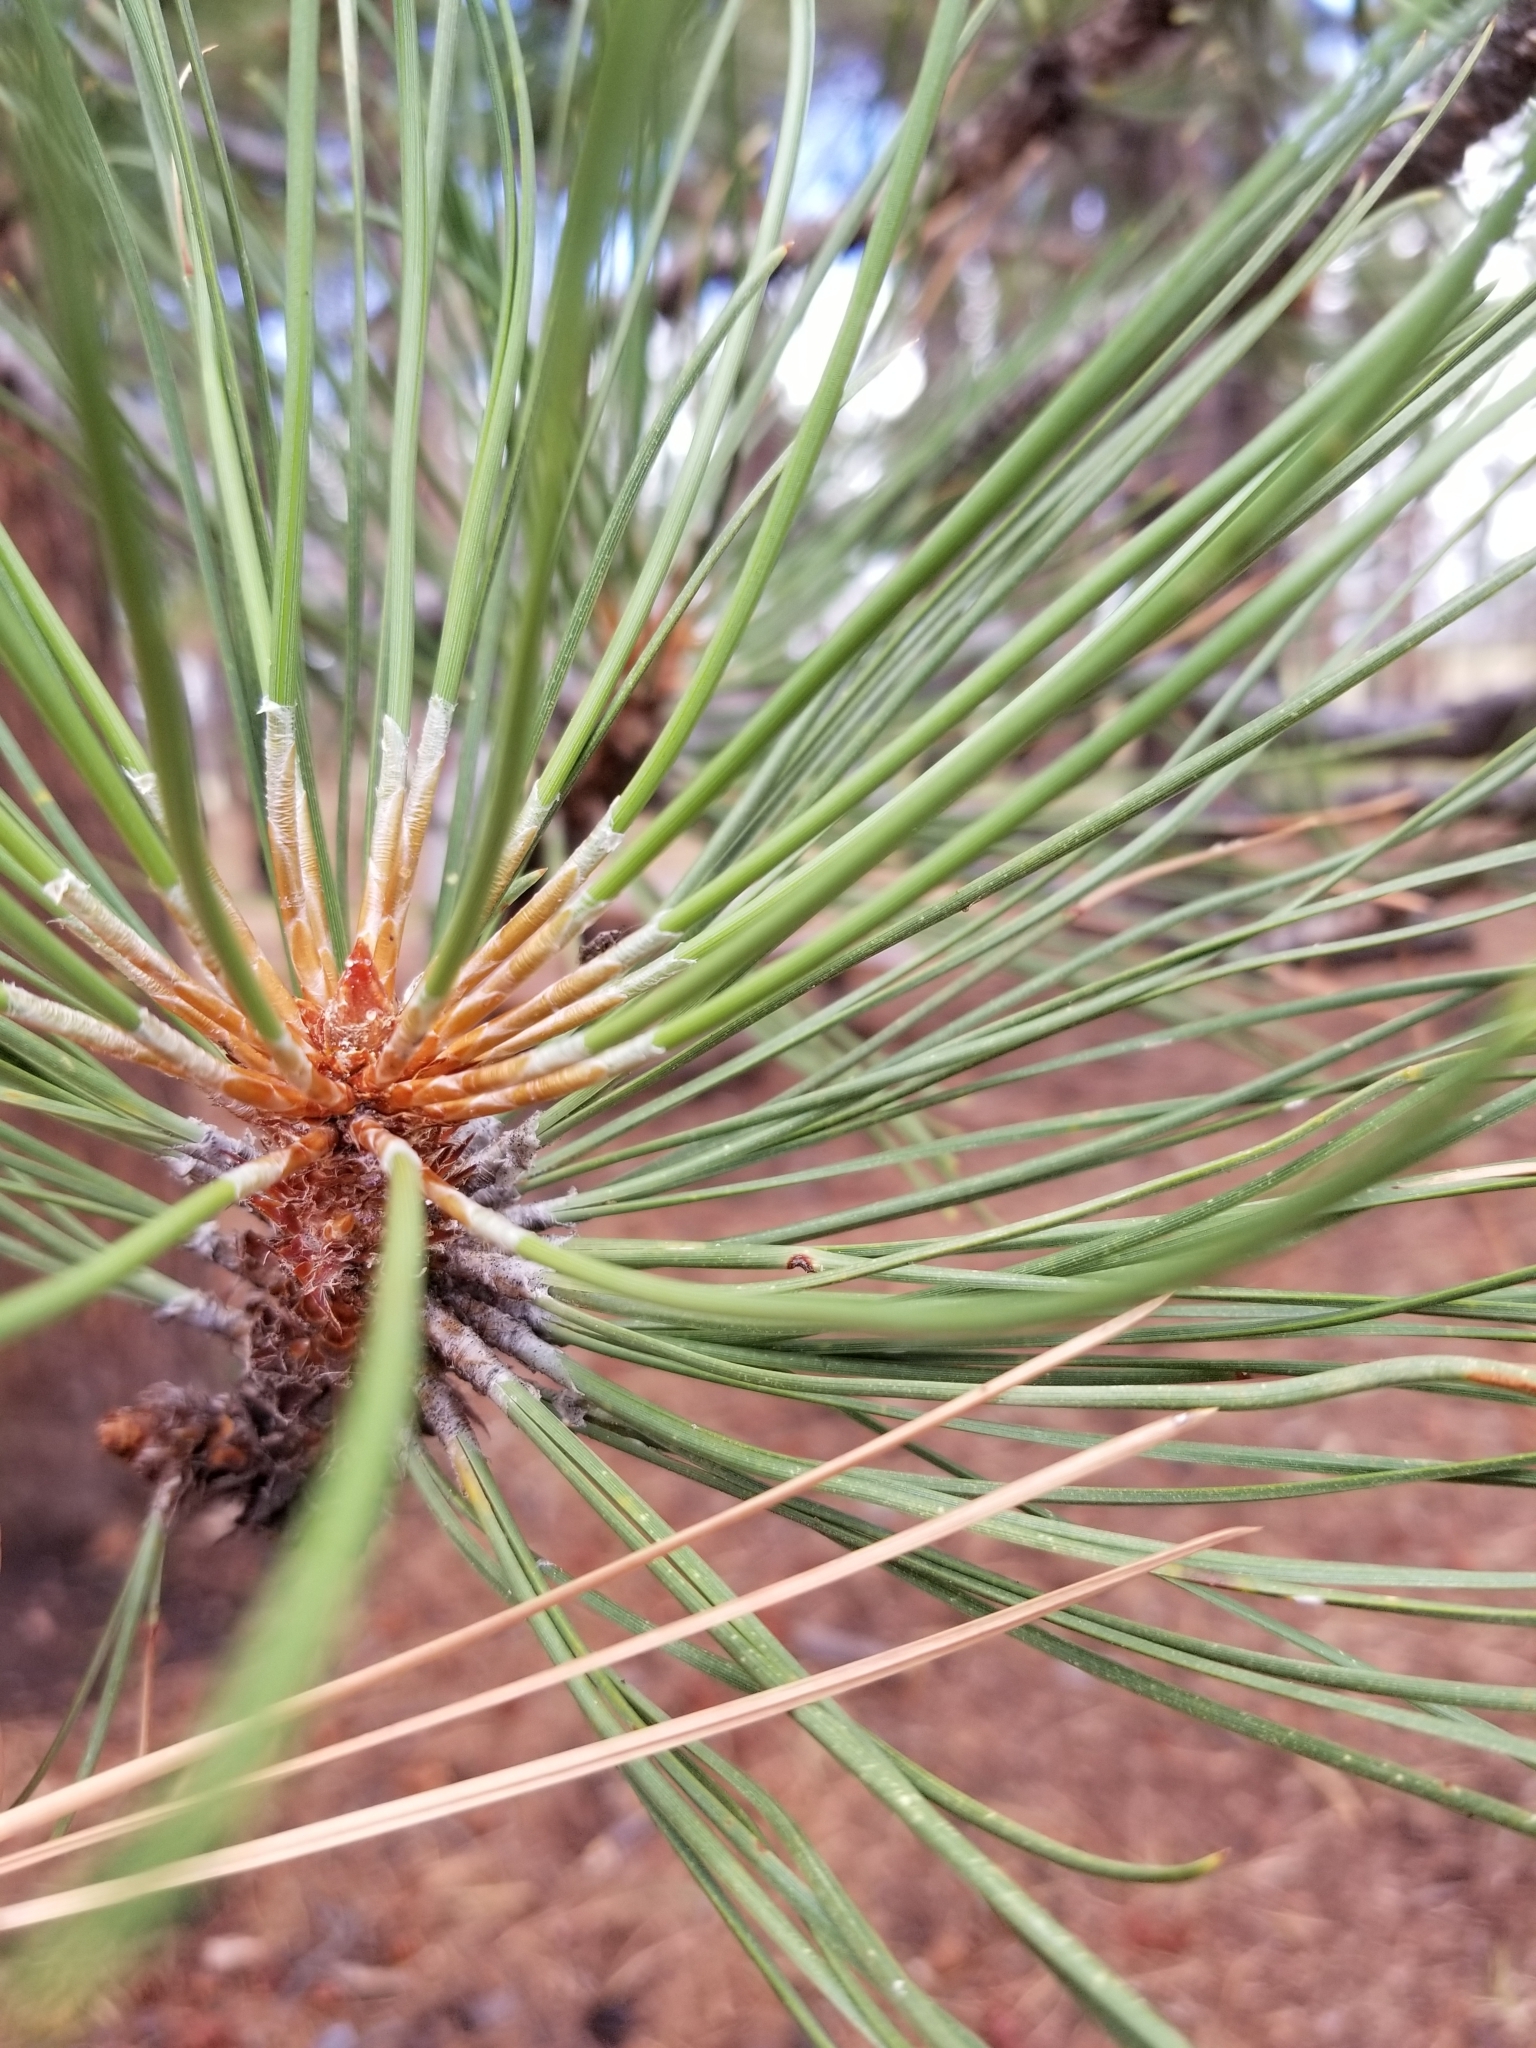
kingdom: Plantae
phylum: Tracheophyta
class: Pinopsida
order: Pinales
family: Pinaceae
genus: Pinus
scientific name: Pinus ponderosa
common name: Western yellow-pine
